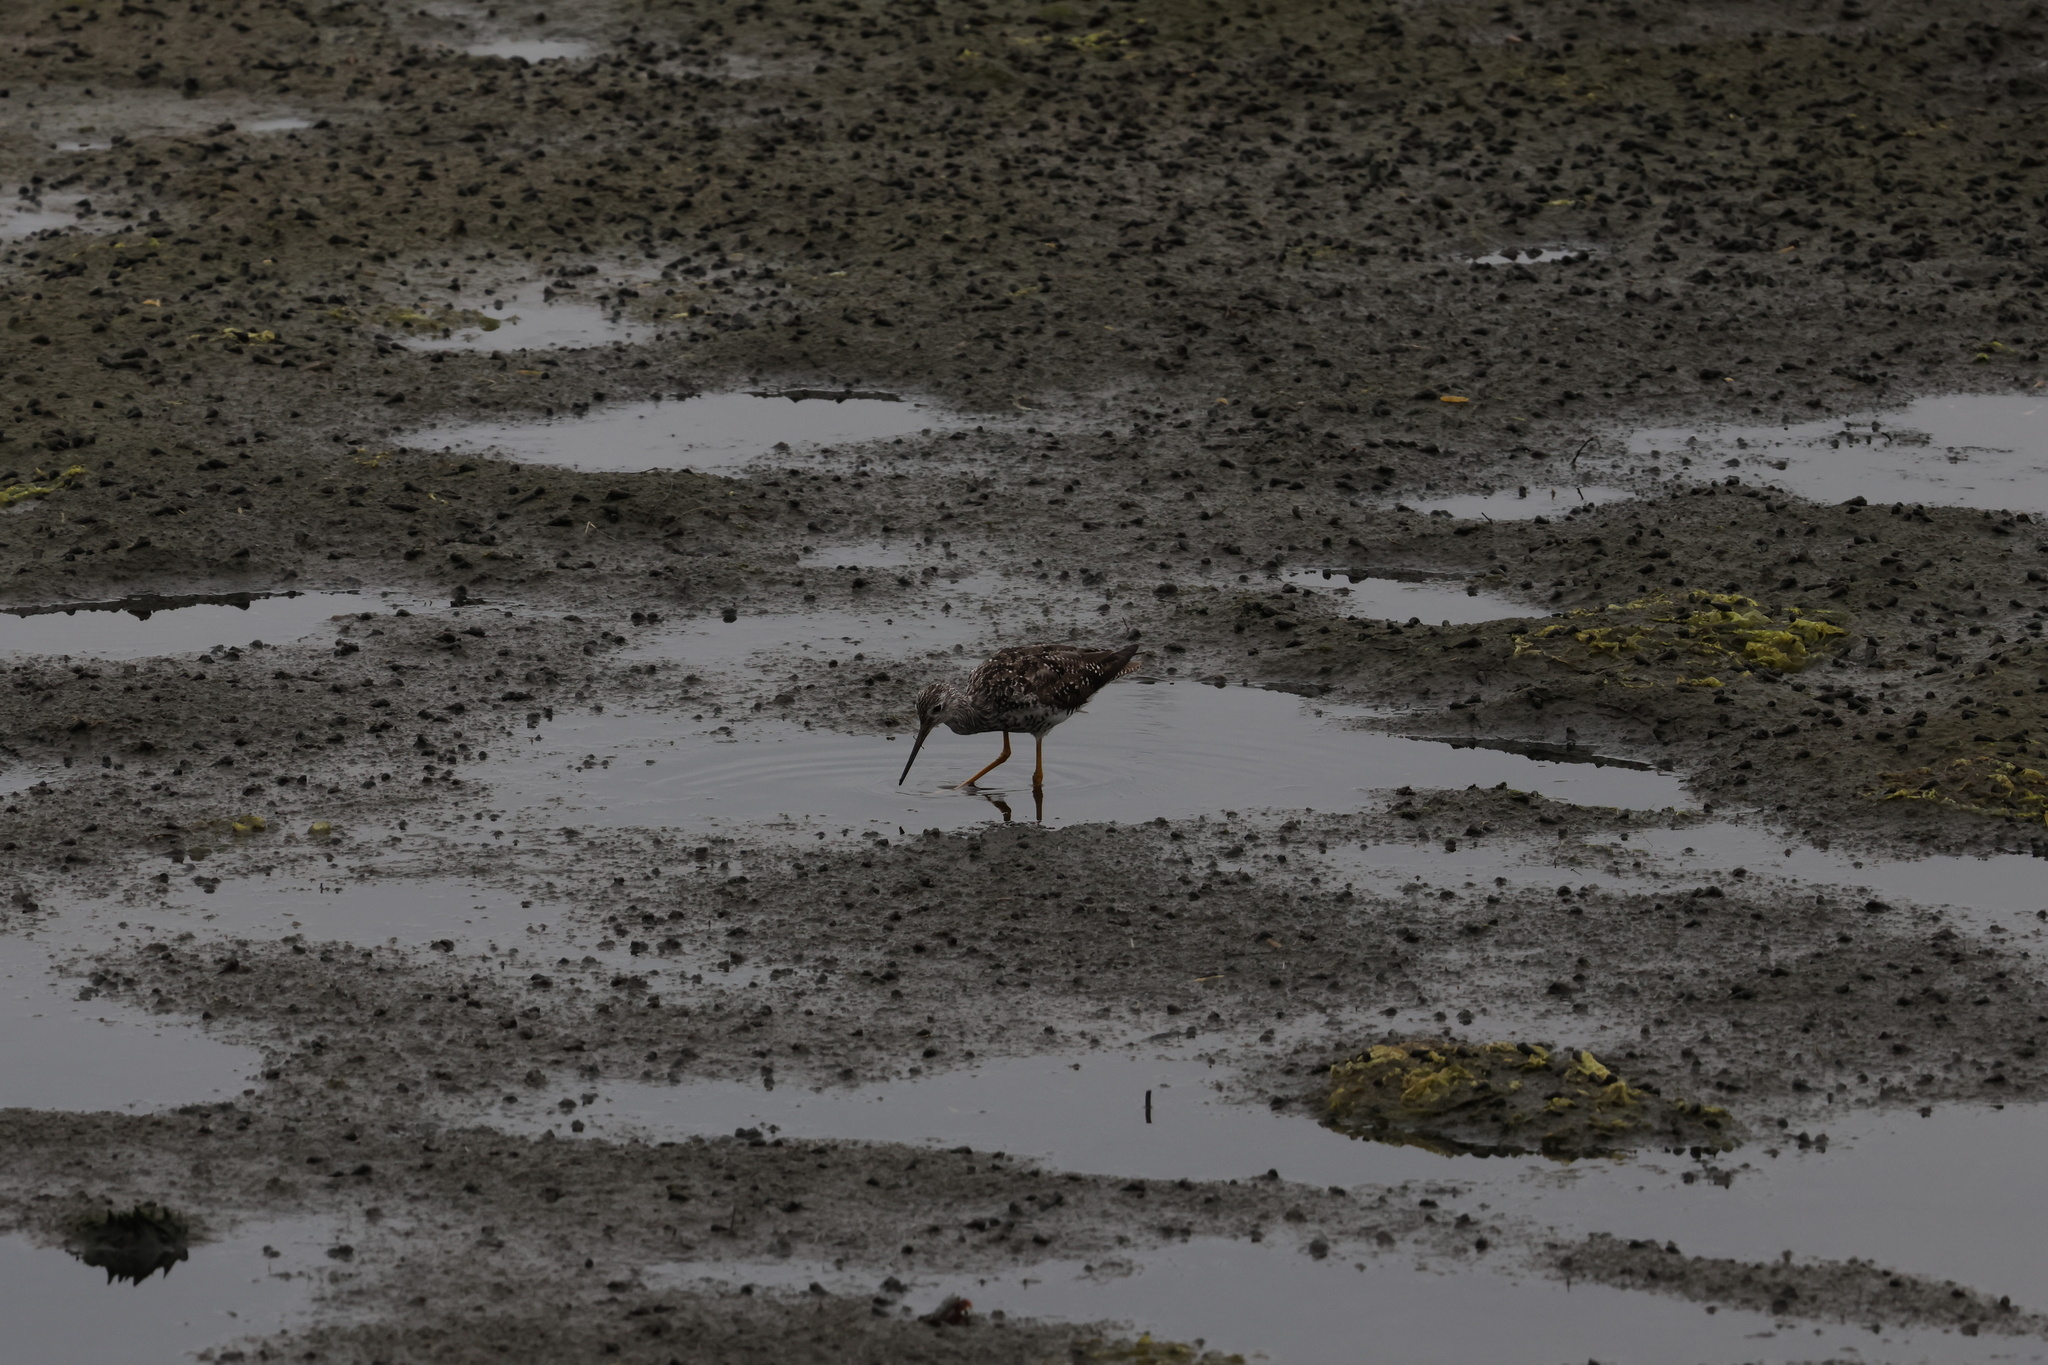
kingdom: Animalia
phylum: Chordata
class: Aves
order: Charadriiformes
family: Scolopacidae
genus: Tringa
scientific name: Tringa melanoleuca
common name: Greater yellowlegs
